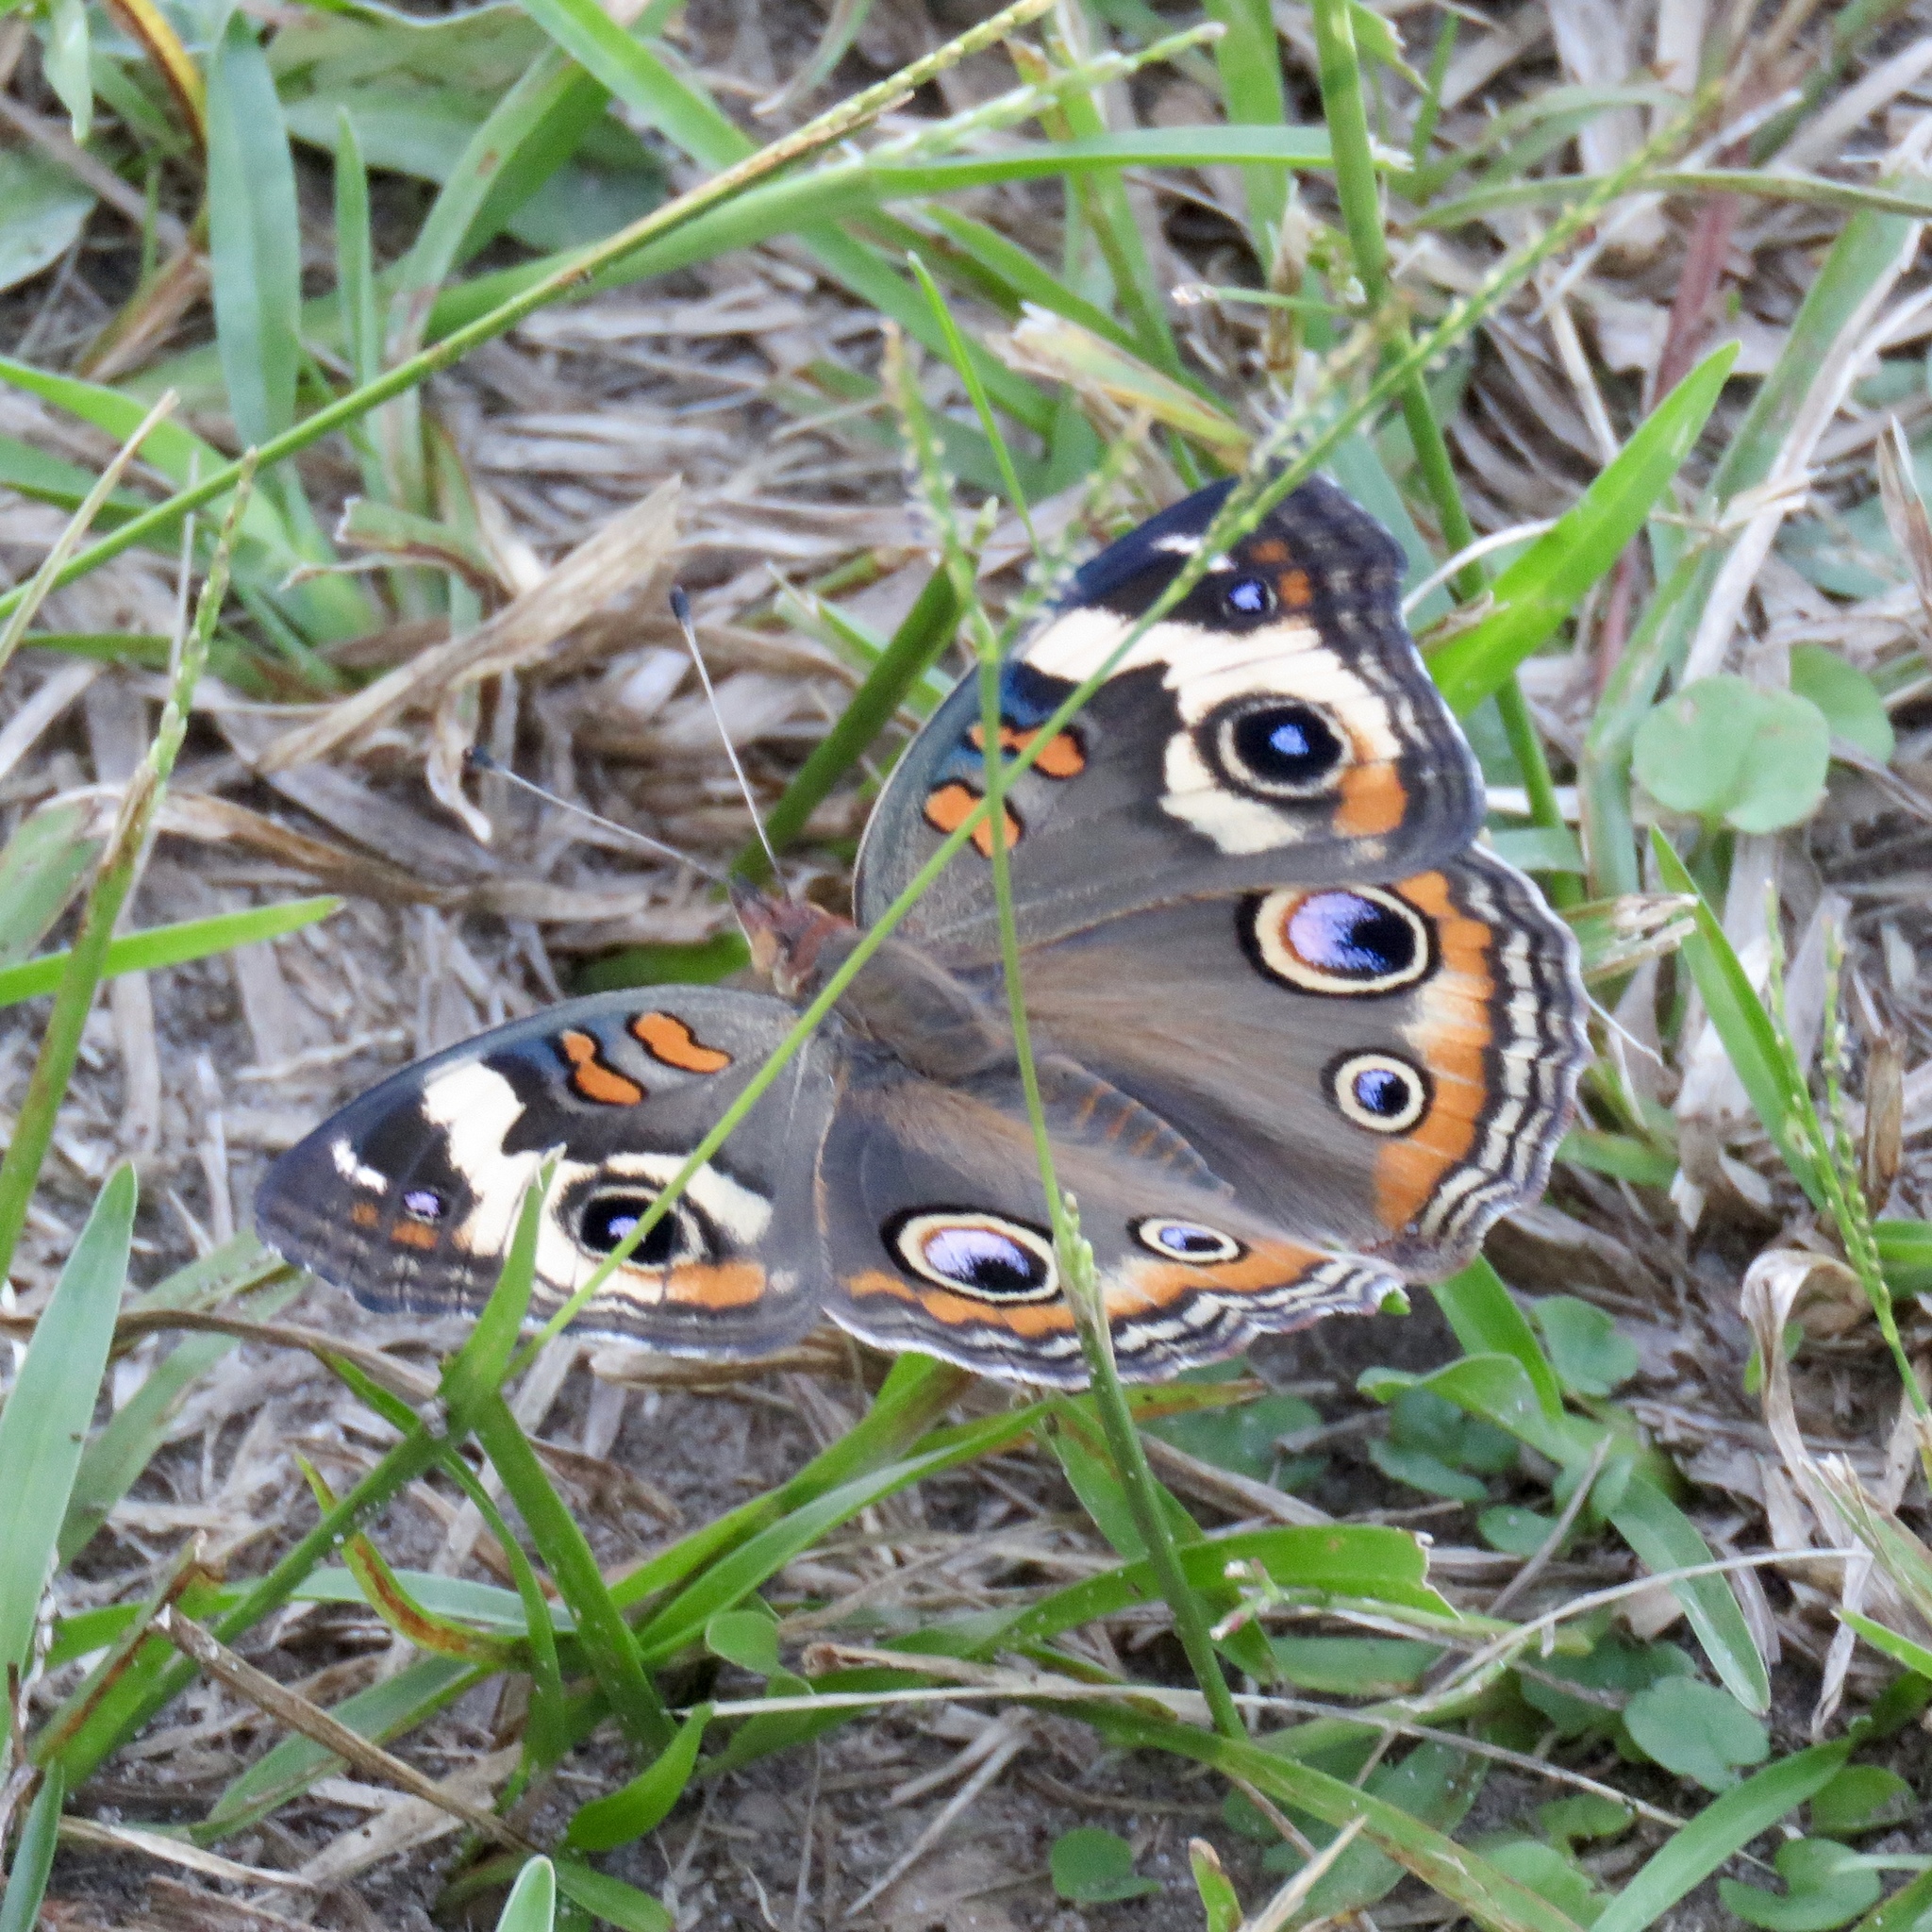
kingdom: Animalia
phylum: Arthropoda
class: Insecta
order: Lepidoptera
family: Nymphalidae
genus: Junonia
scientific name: Junonia coenia
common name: Common buckeye
